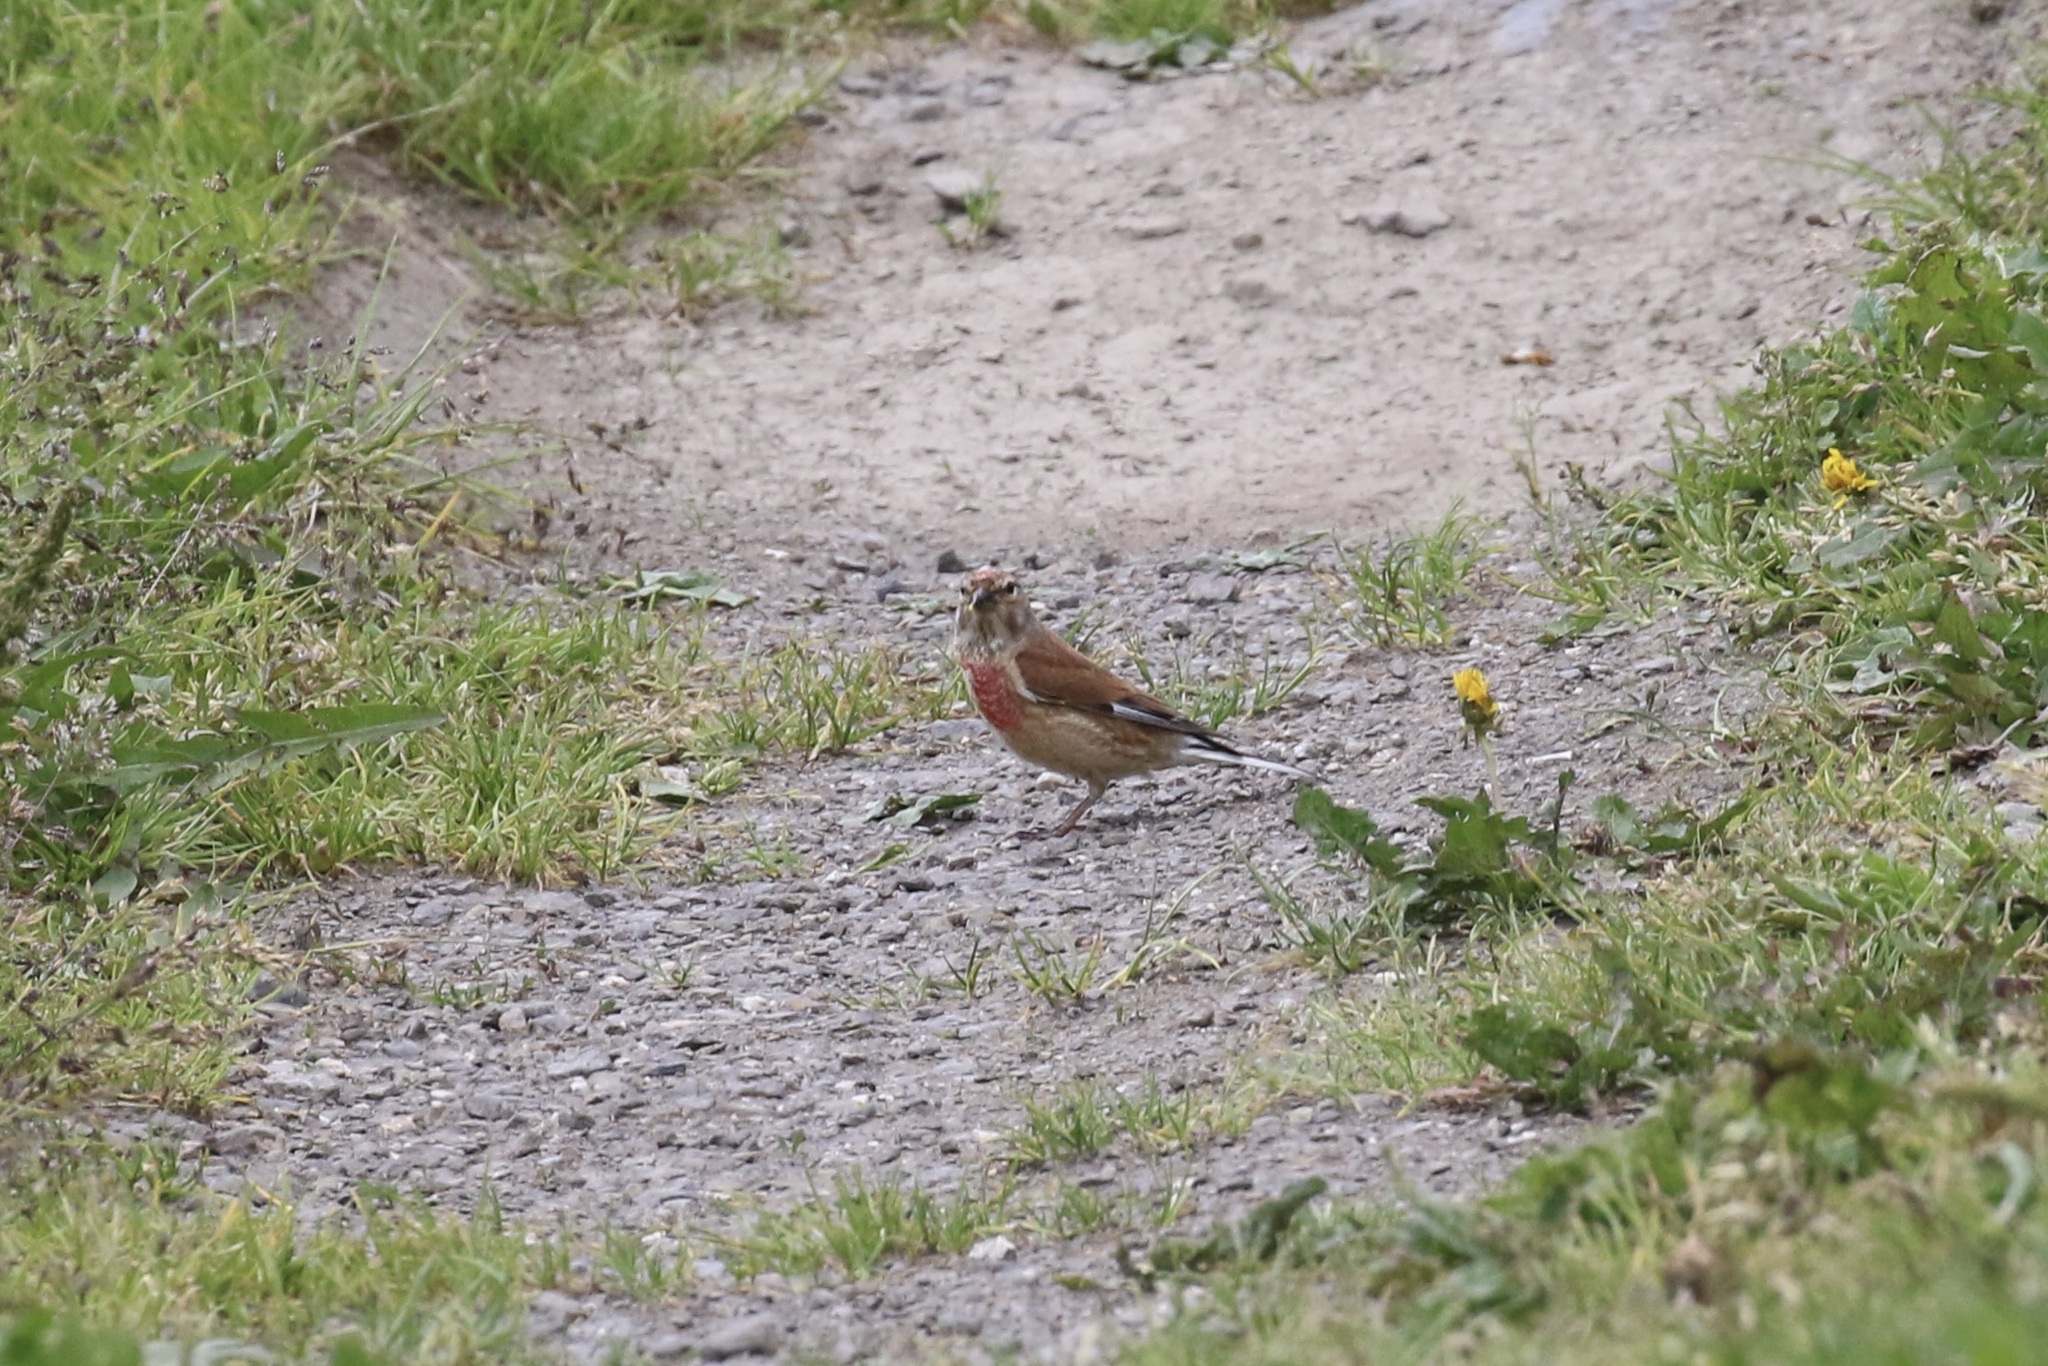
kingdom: Animalia
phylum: Chordata
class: Aves
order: Passeriformes
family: Fringillidae
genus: Linaria
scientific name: Linaria cannabina
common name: Common linnet
